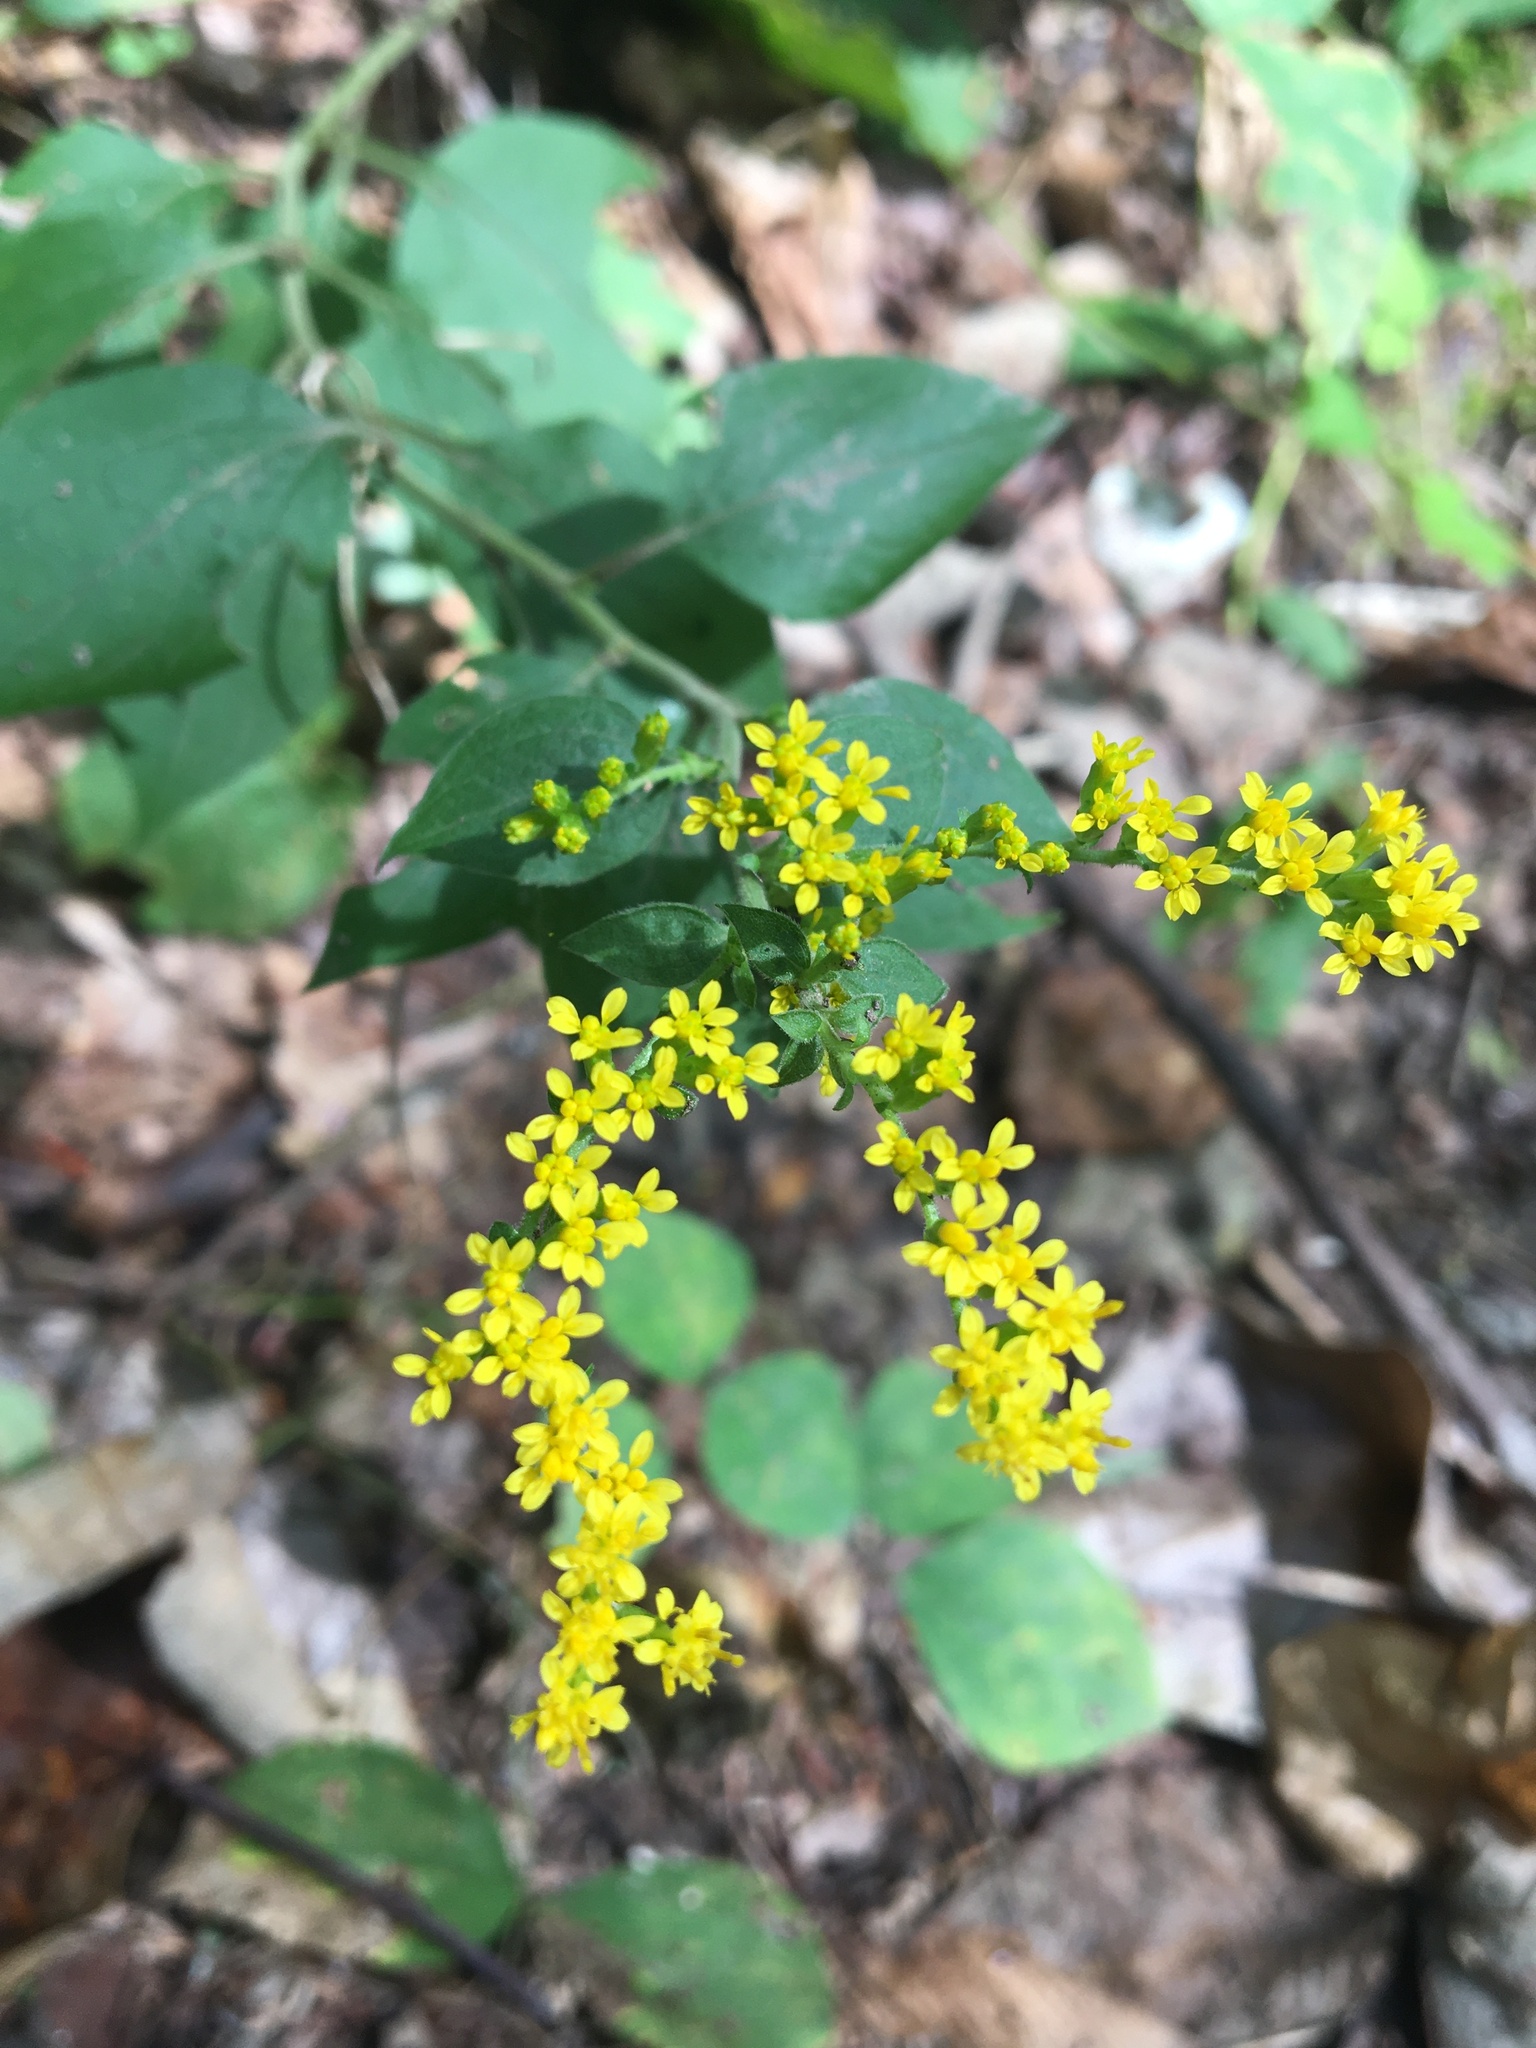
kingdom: Plantae
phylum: Tracheophyta
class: Magnoliopsida
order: Asterales
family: Asteraceae
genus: Solidago
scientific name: Solidago sphacelata
